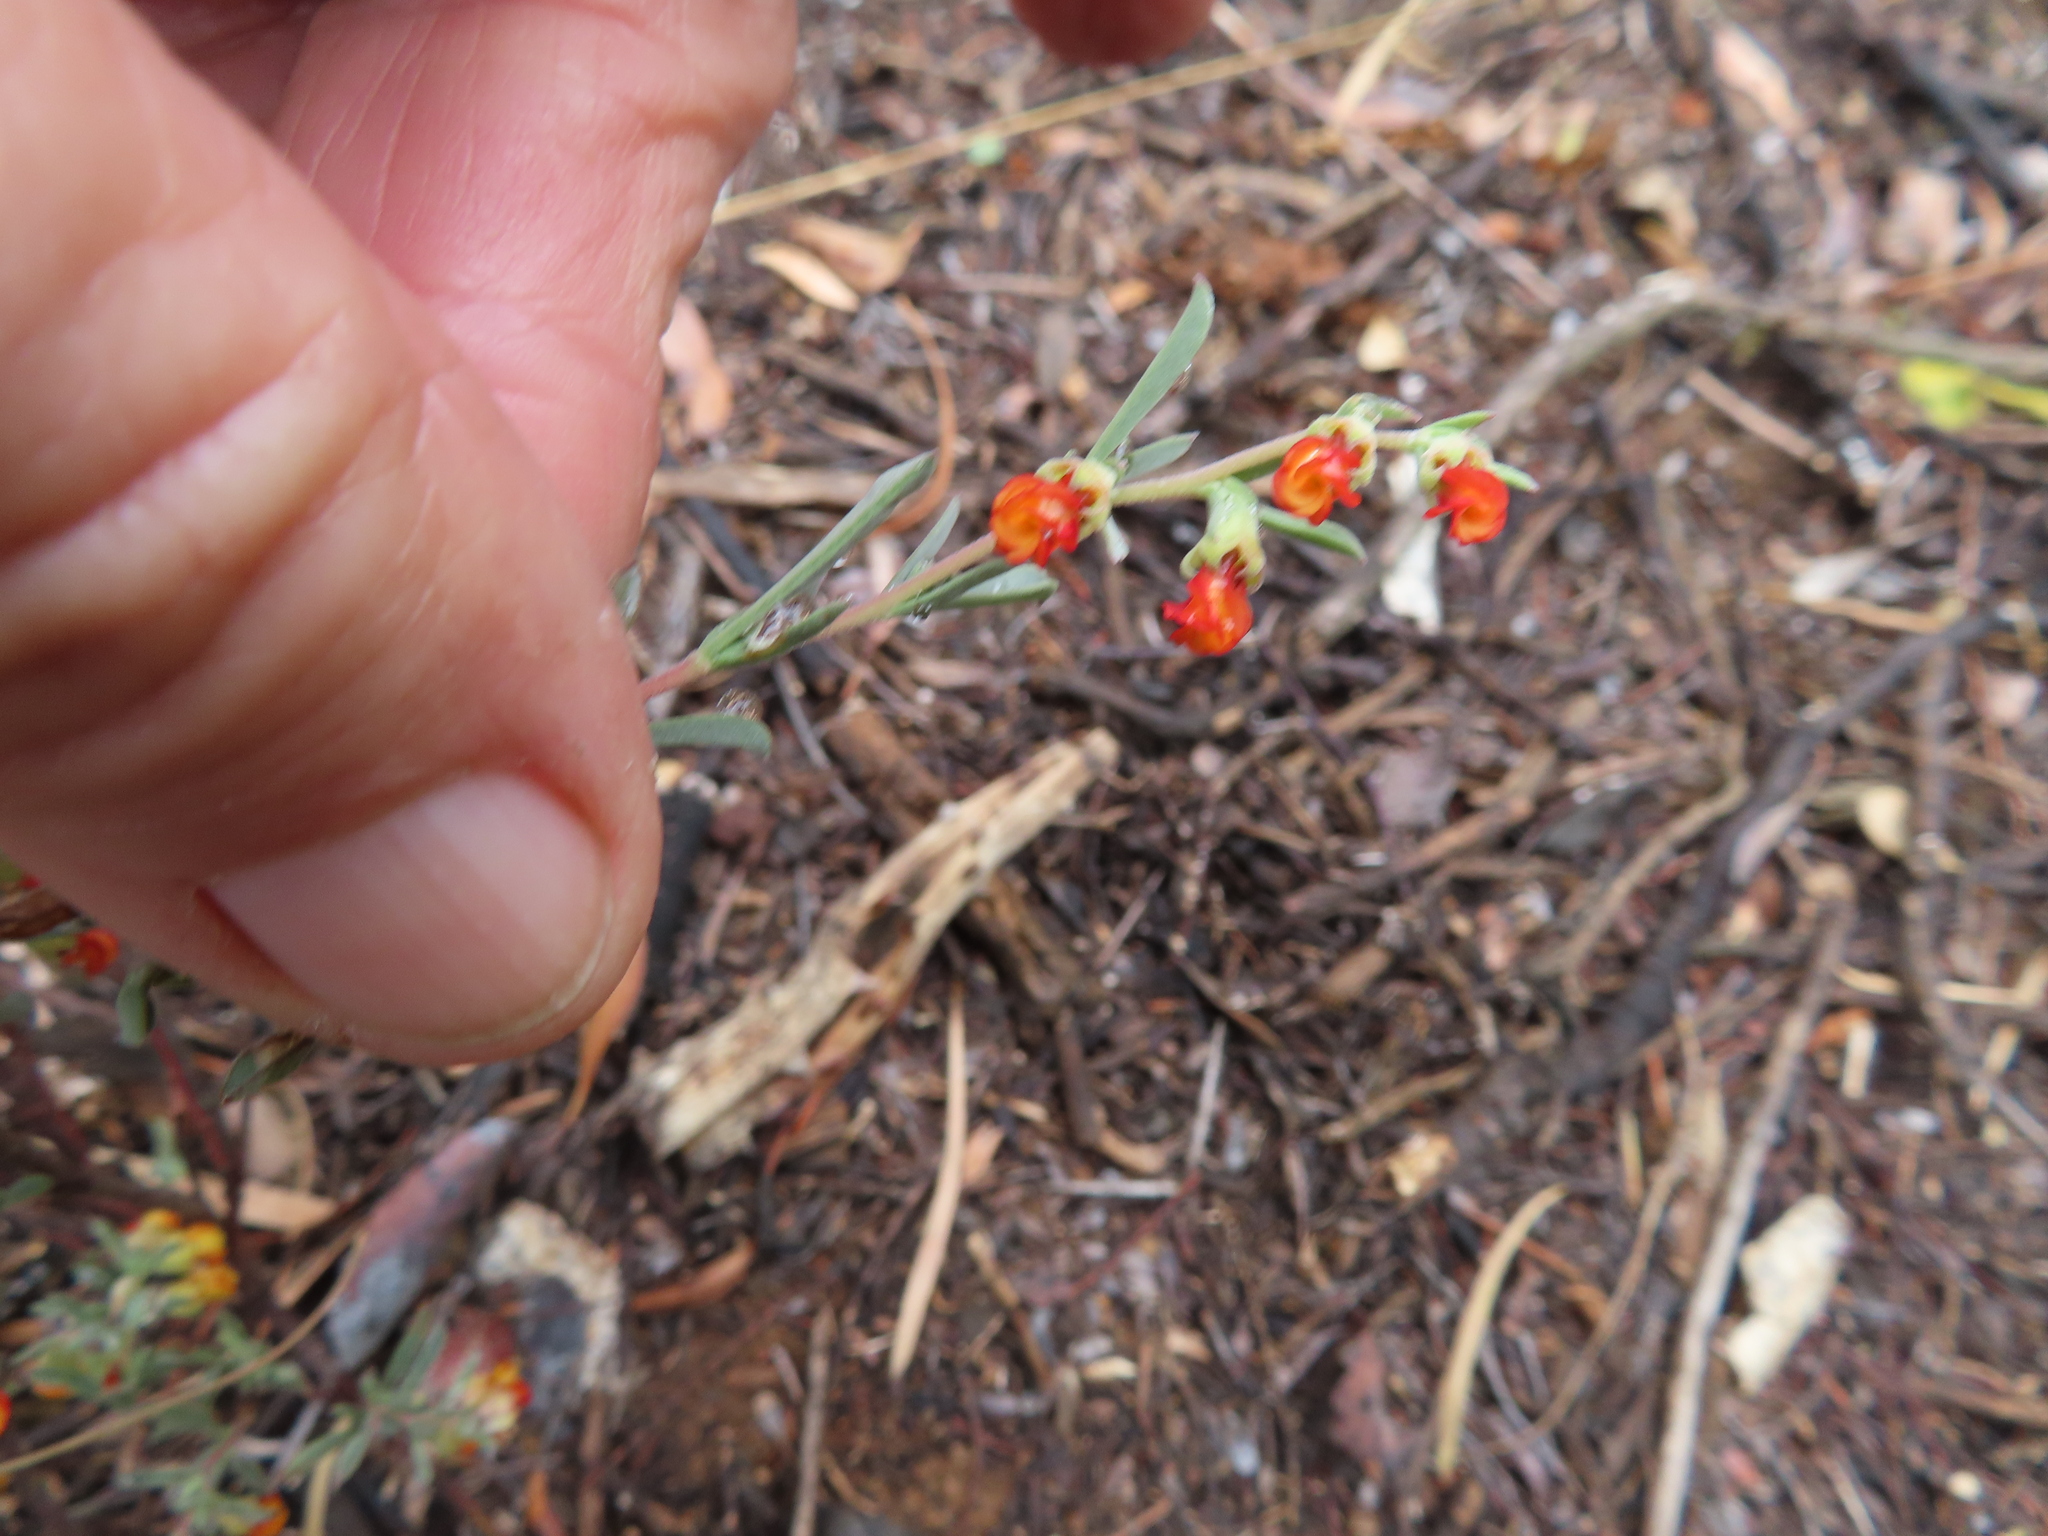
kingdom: Plantae
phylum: Tracheophyta
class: Magnoliopsida
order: Malvales
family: Malvaceae
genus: Hermannia
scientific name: Hermannia diversistipula
